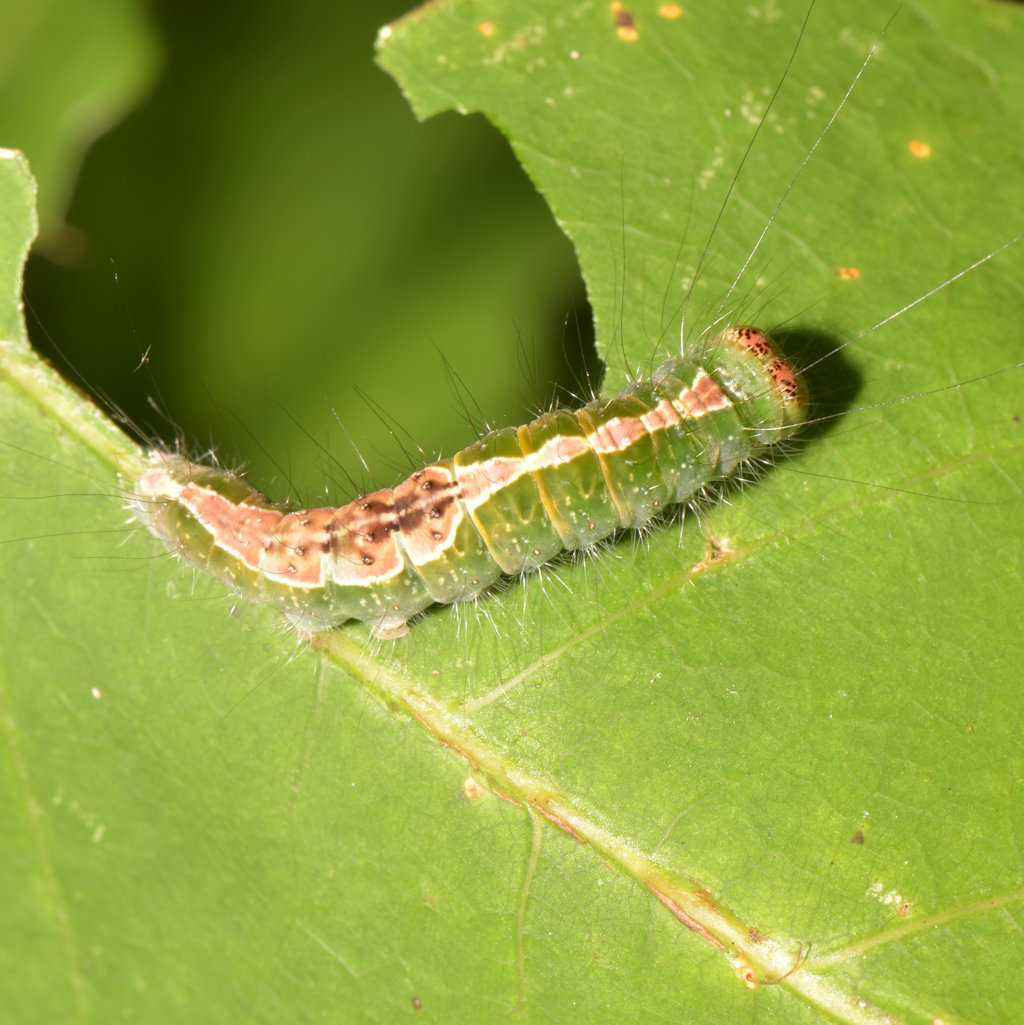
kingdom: Animalia
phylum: Arthropoda
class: Insecta
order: Lepidoptera
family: Noctuidae
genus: Acronicta
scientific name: Acronicta lithospila
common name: Streaked dagger
